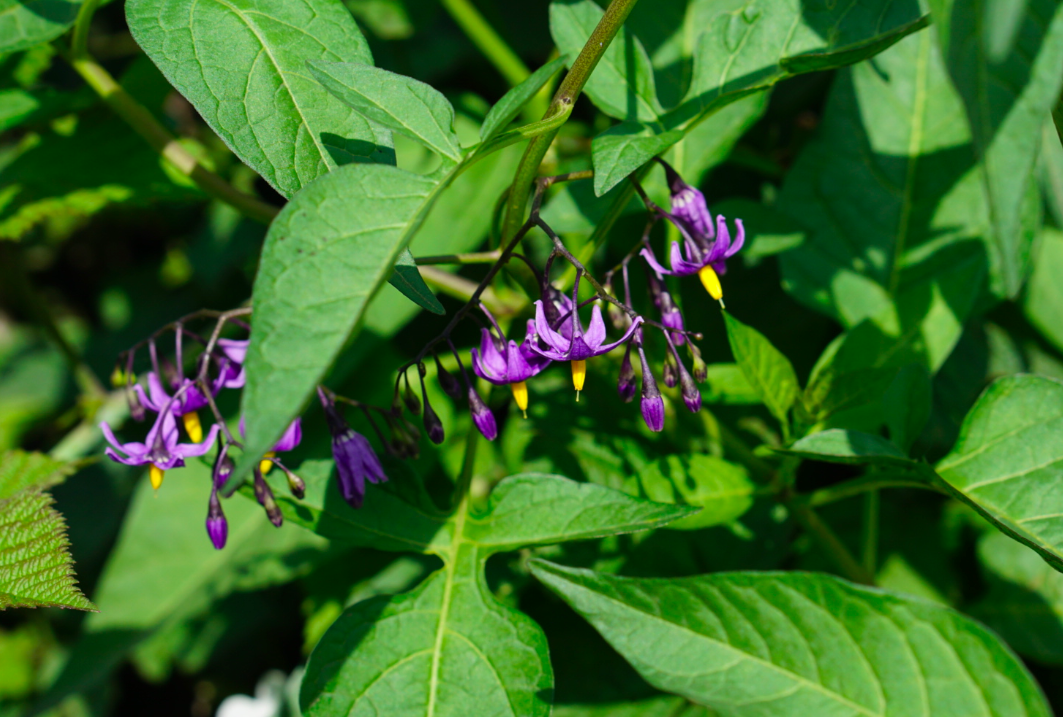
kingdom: Plantae
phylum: Tracheophyta
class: Magnoliopsida
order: Solanales
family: Solanaceae
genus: Solanum
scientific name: Solanum dulcamara
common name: Climbing nightshade
